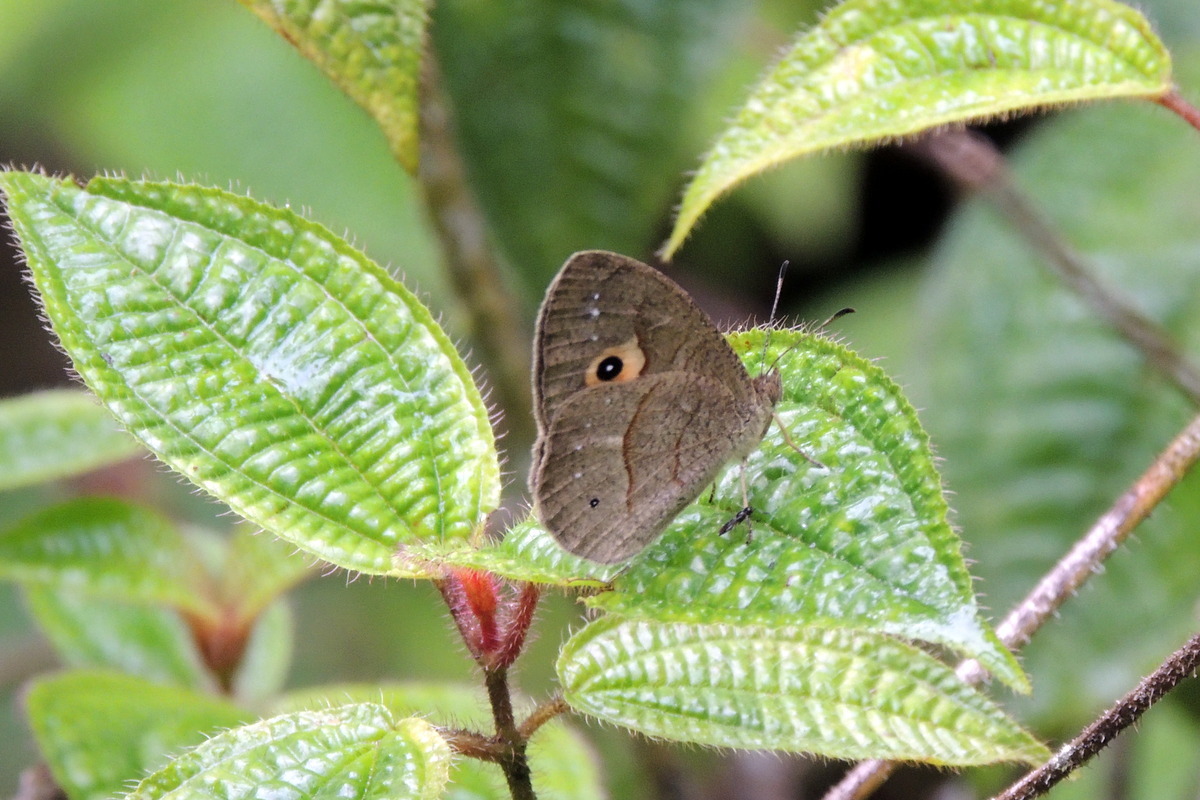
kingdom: Animalia
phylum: Arthropoda
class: Insecta
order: Lepidoptera
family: Nymphalidae
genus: Heteropsis
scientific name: Heteropsis andasibe
